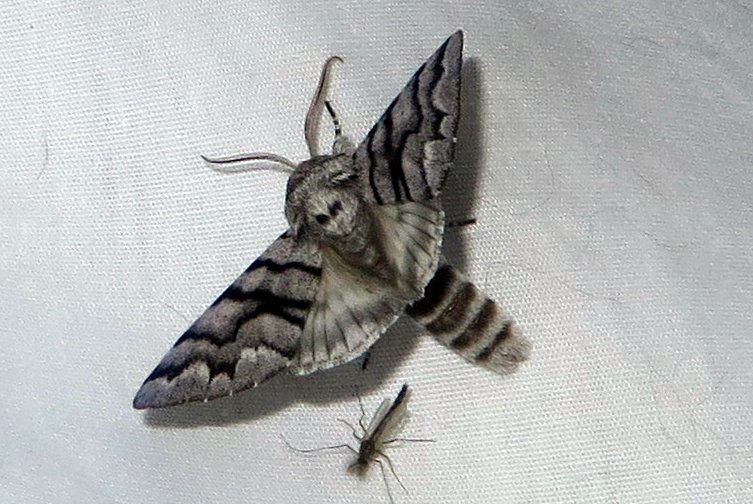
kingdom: Animalia
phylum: Arthropoda
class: Insecta
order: Lepidoptera
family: Noctuidae
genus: Panthea
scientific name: Panthea furcilla
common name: Eastern panthea moth
